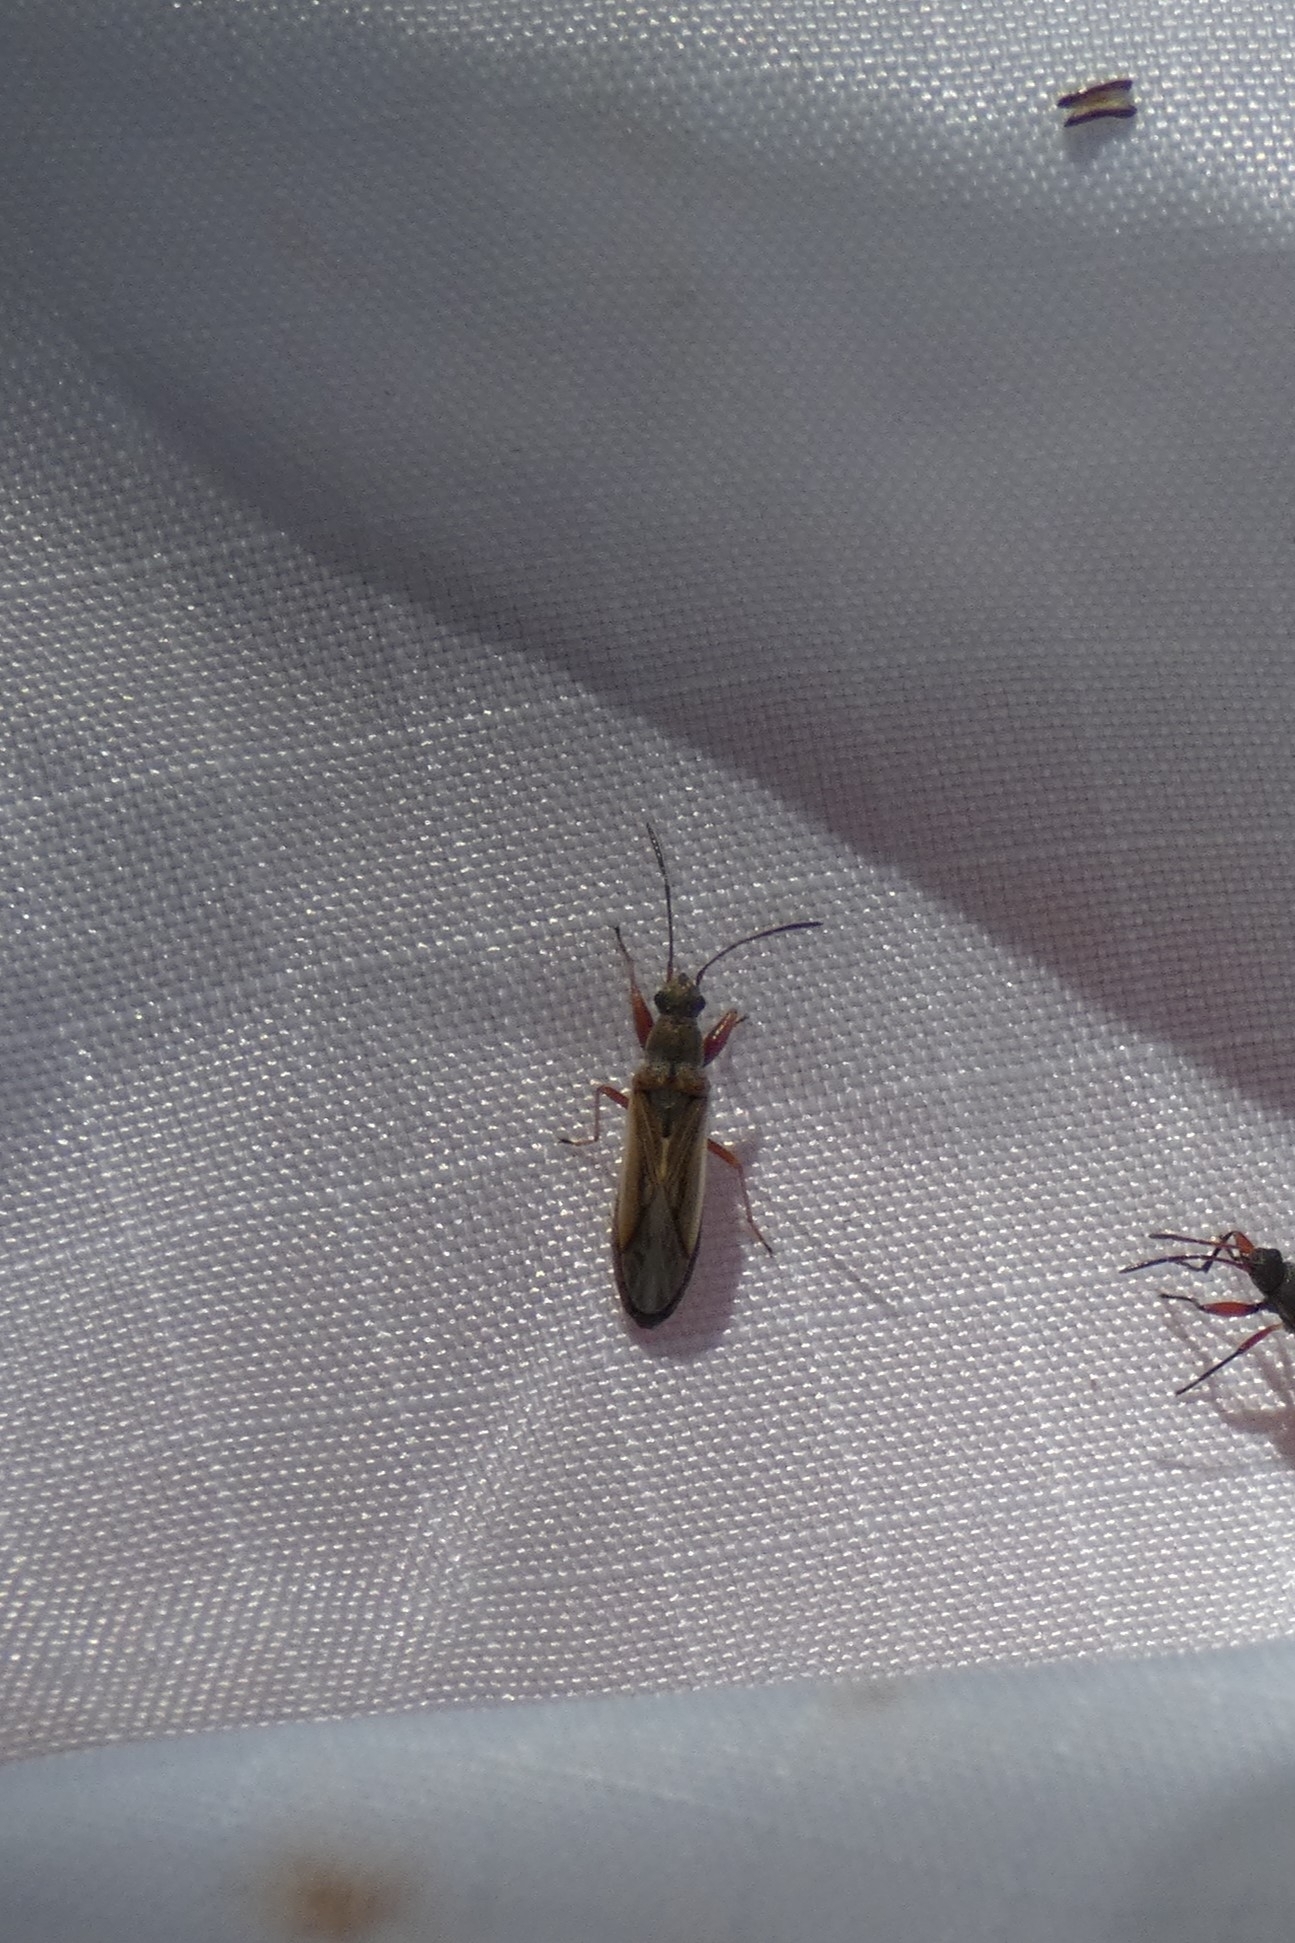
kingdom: Animalia
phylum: Arthropoda
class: Insecta
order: Hemiptera
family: Rhyparochromidae
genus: Paromius
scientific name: Paromius longulus
